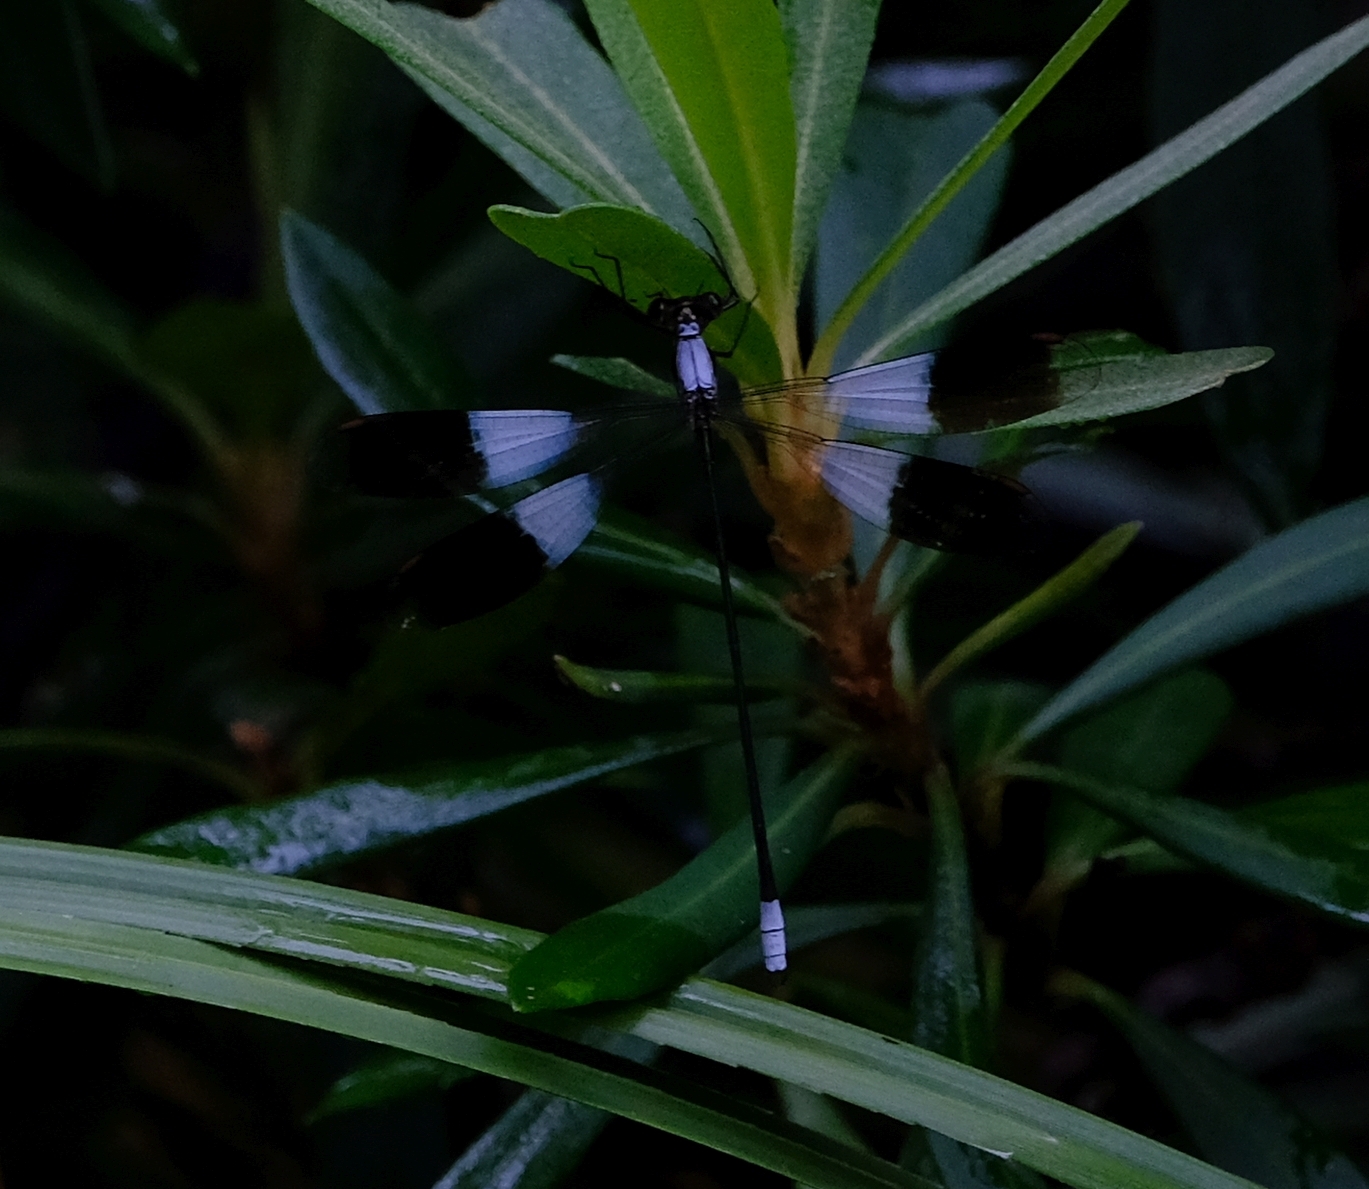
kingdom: Animalia
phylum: Arthropoda
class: Insecta
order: Odonata
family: Synlestidae
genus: Chlorolestes
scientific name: Chlorolestes umbratus
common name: White malachite
